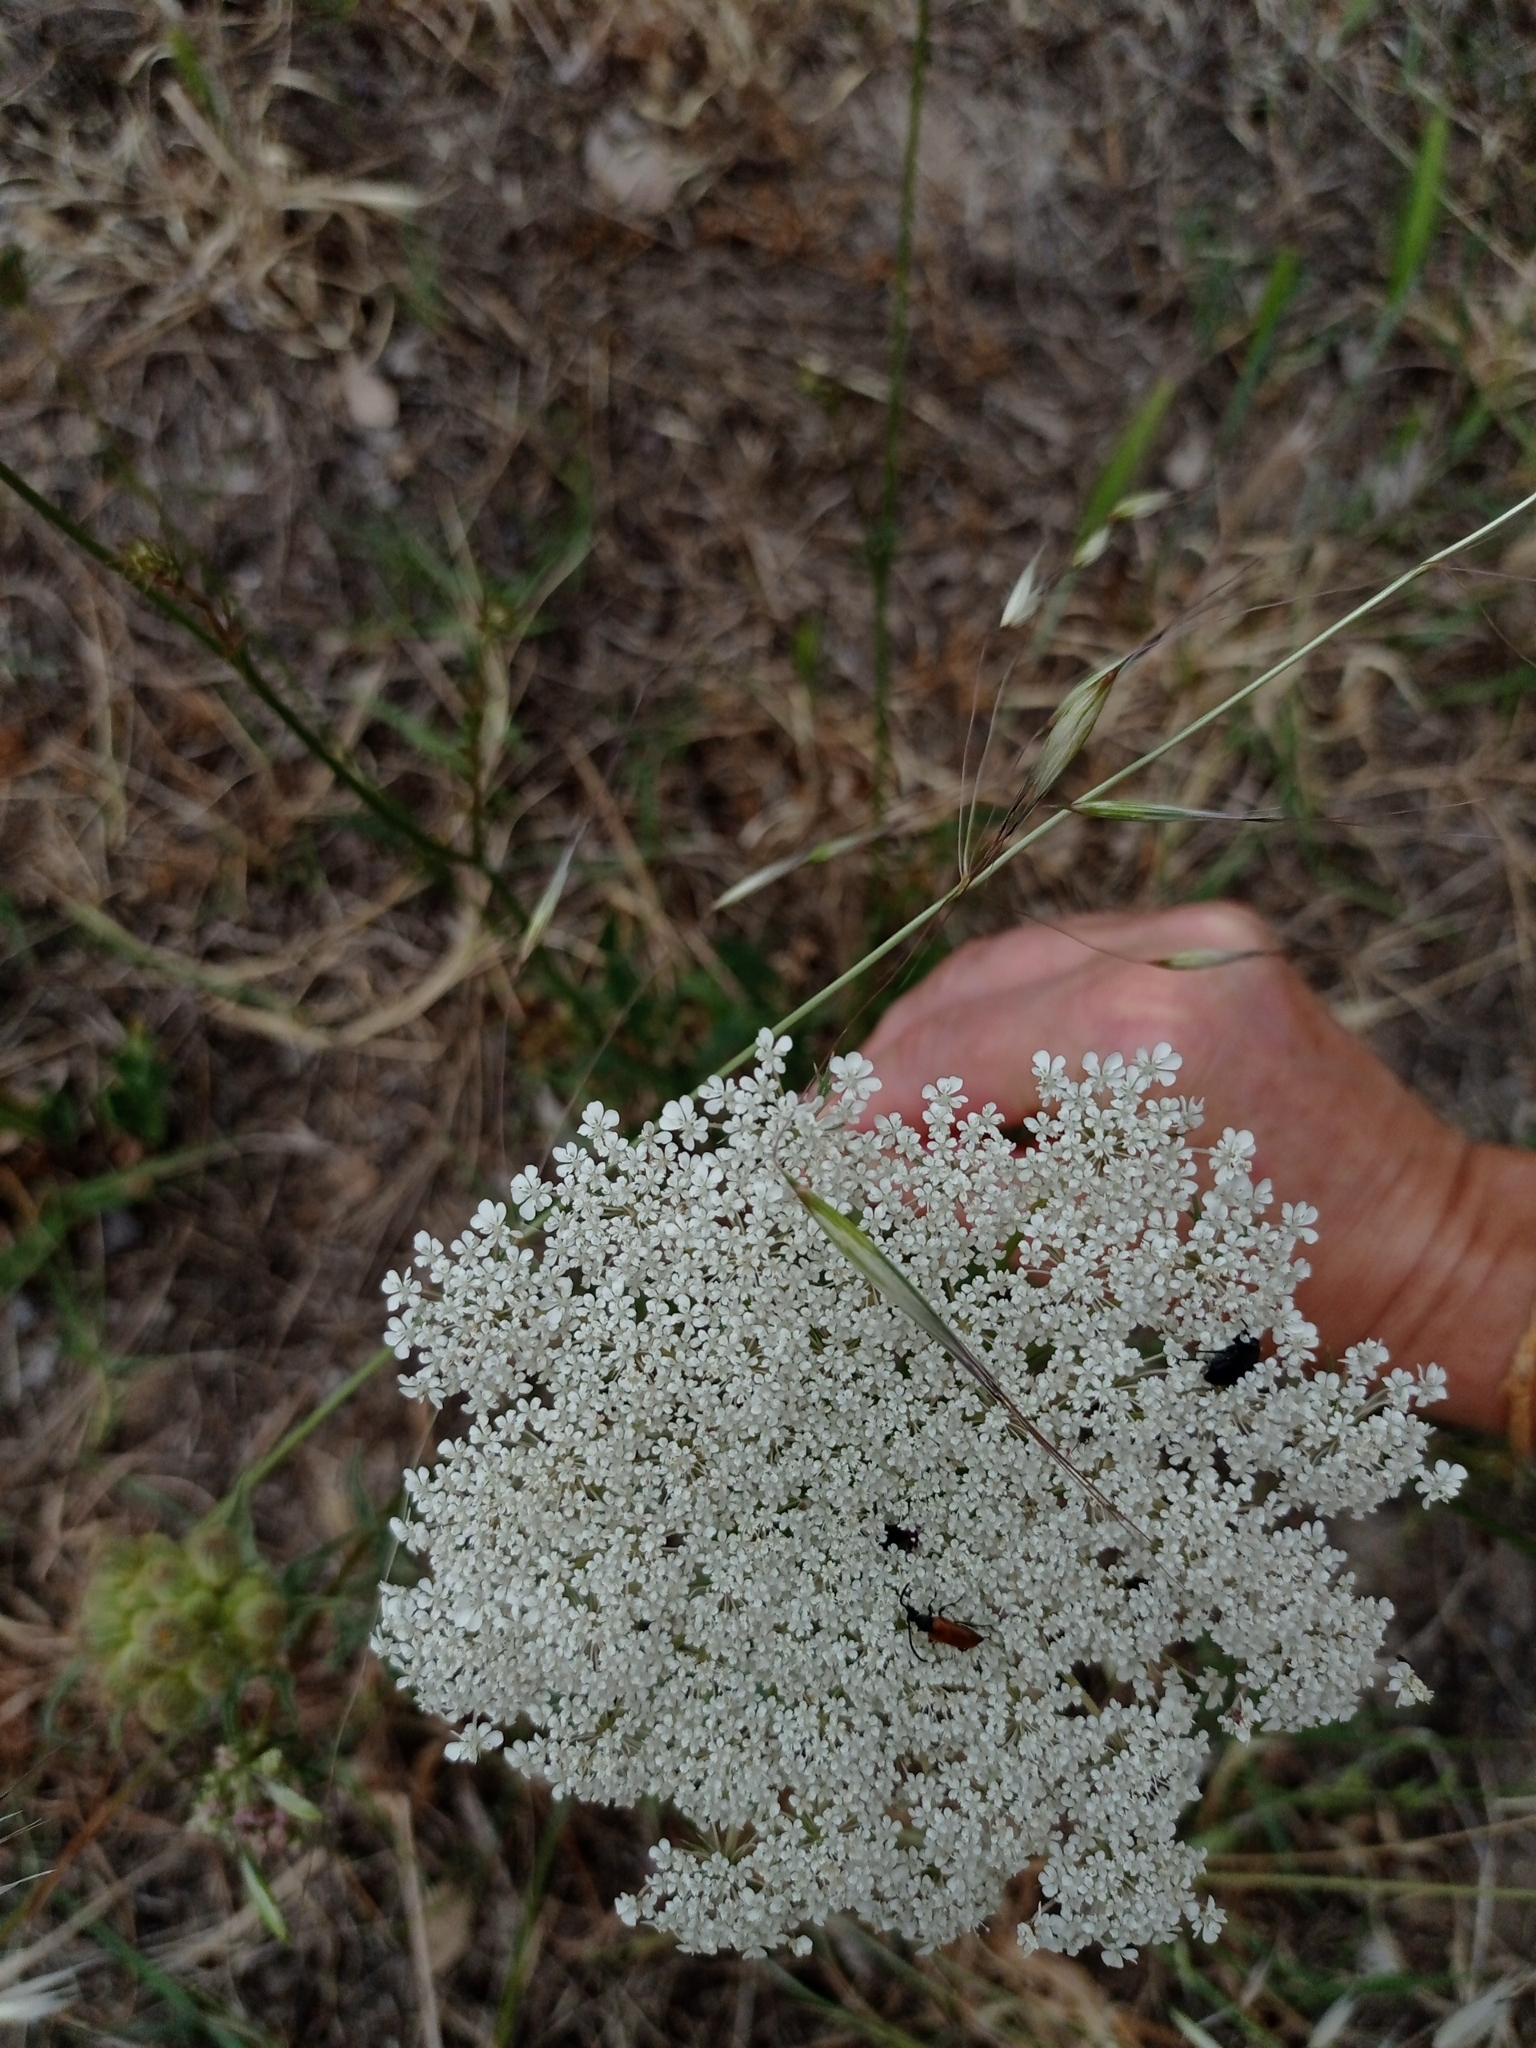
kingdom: Plantae
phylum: Tracheophyta
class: Magnoliopsida
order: Apiales
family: Apiaceae
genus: Daucus
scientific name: Daucus carota
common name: Wild carrot
